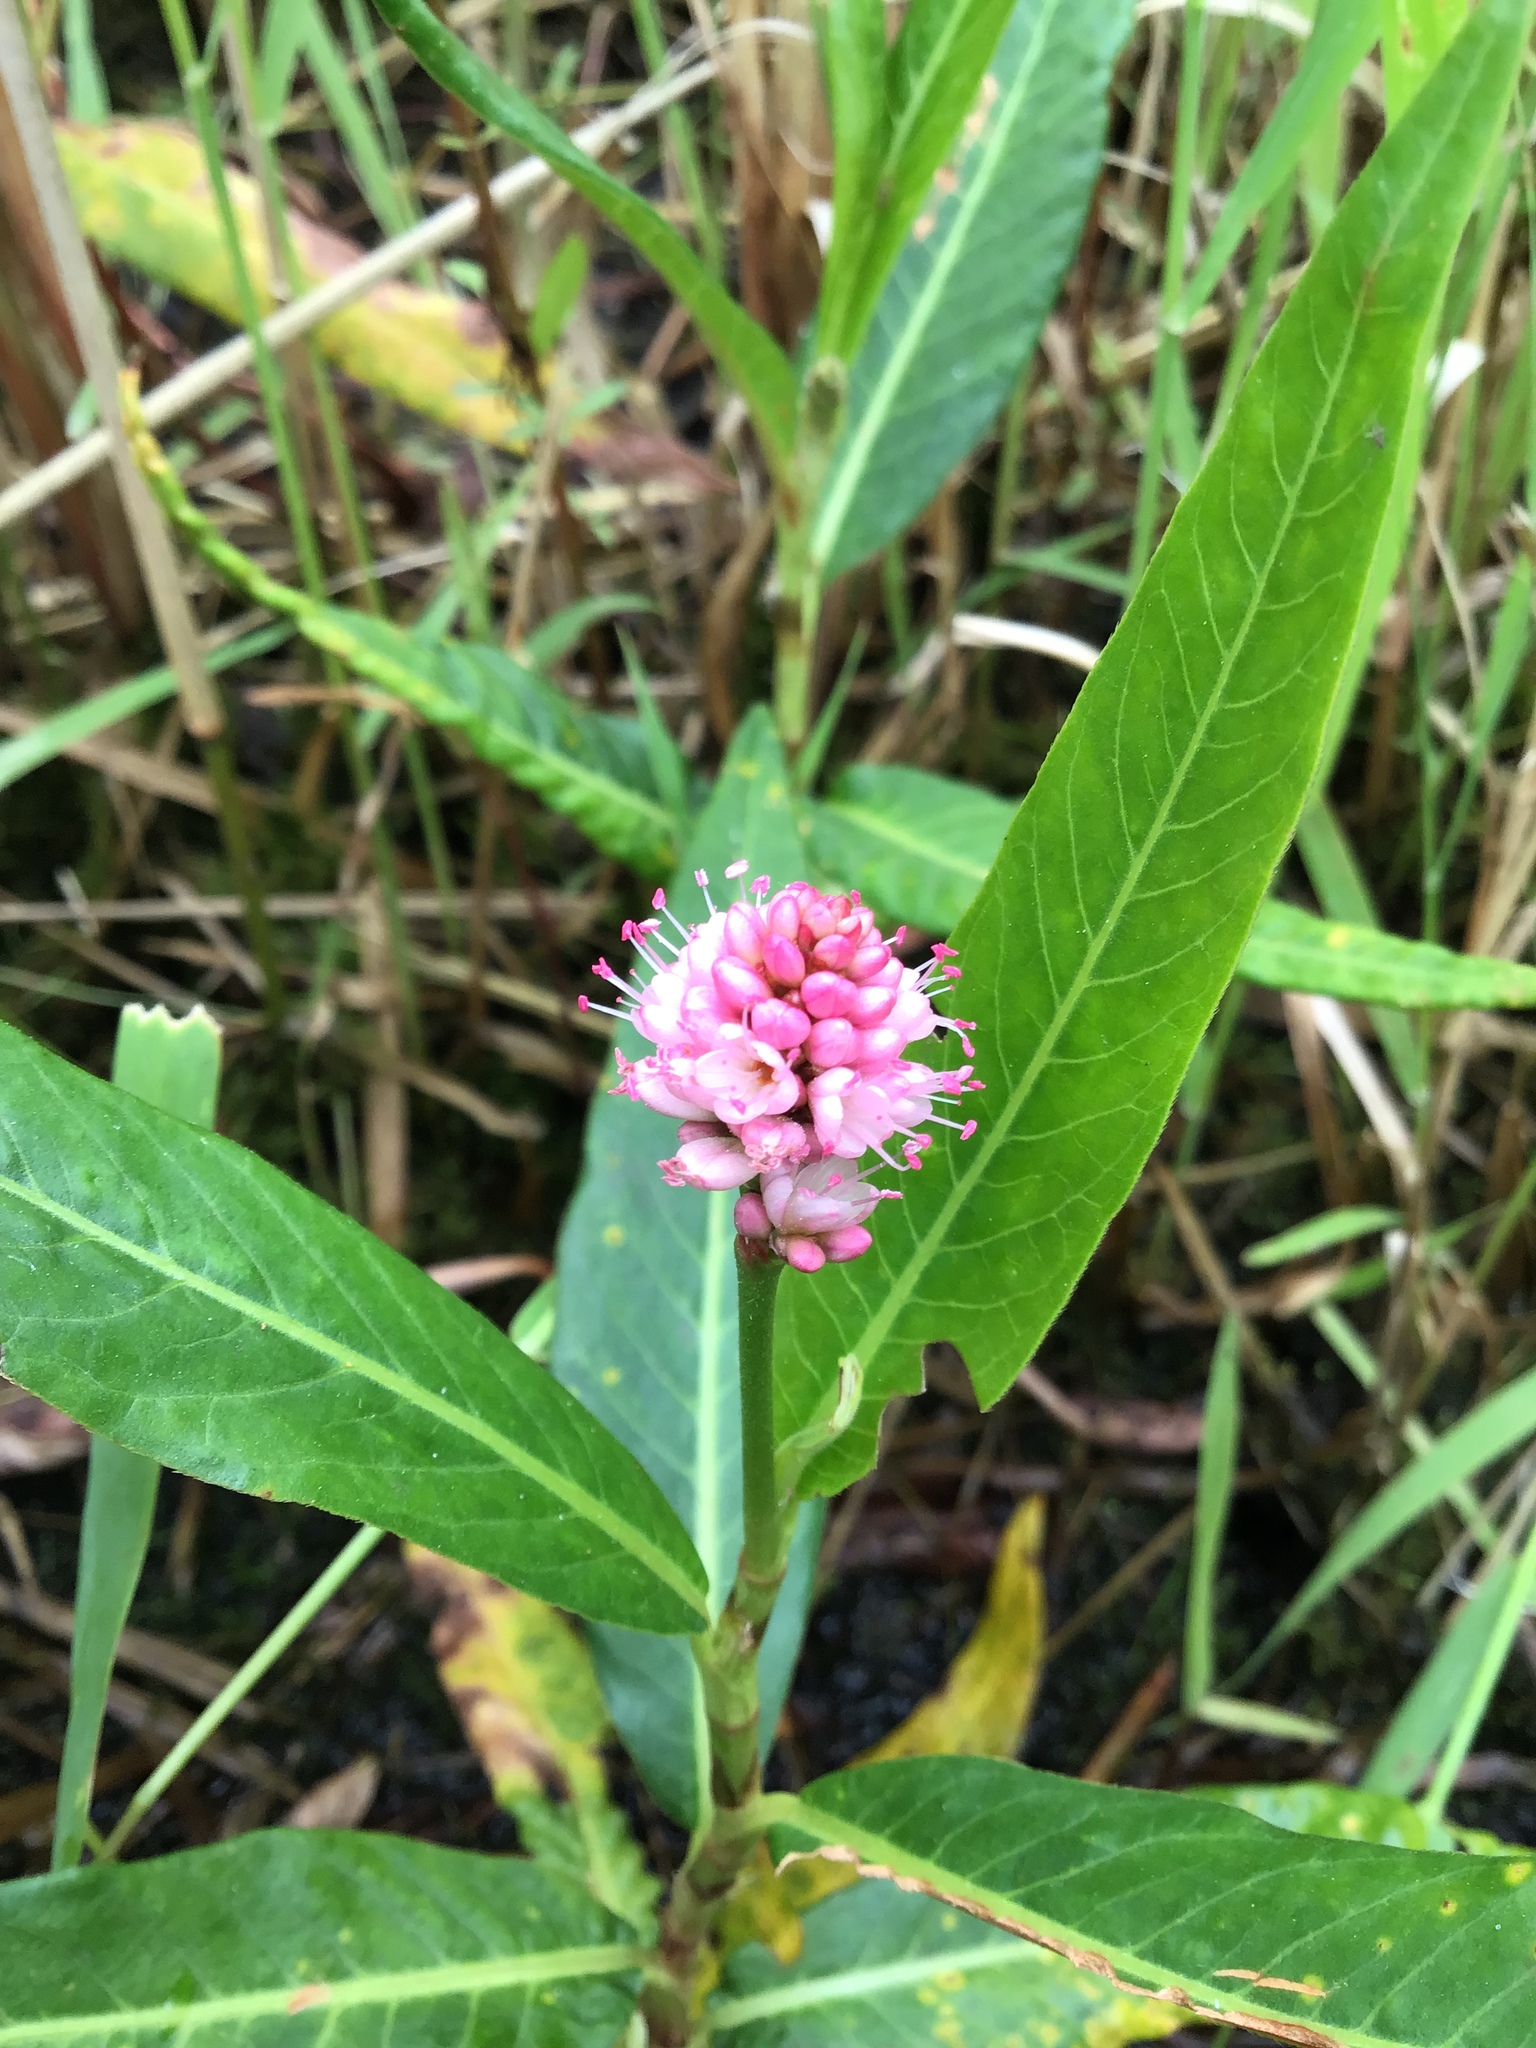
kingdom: Plantae
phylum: Tracheophyta
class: Magnoliopsida
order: Caryophyllales
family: Polygonaceae
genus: Persicaria
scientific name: Persicaria amphibia
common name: Amphibious bistort
